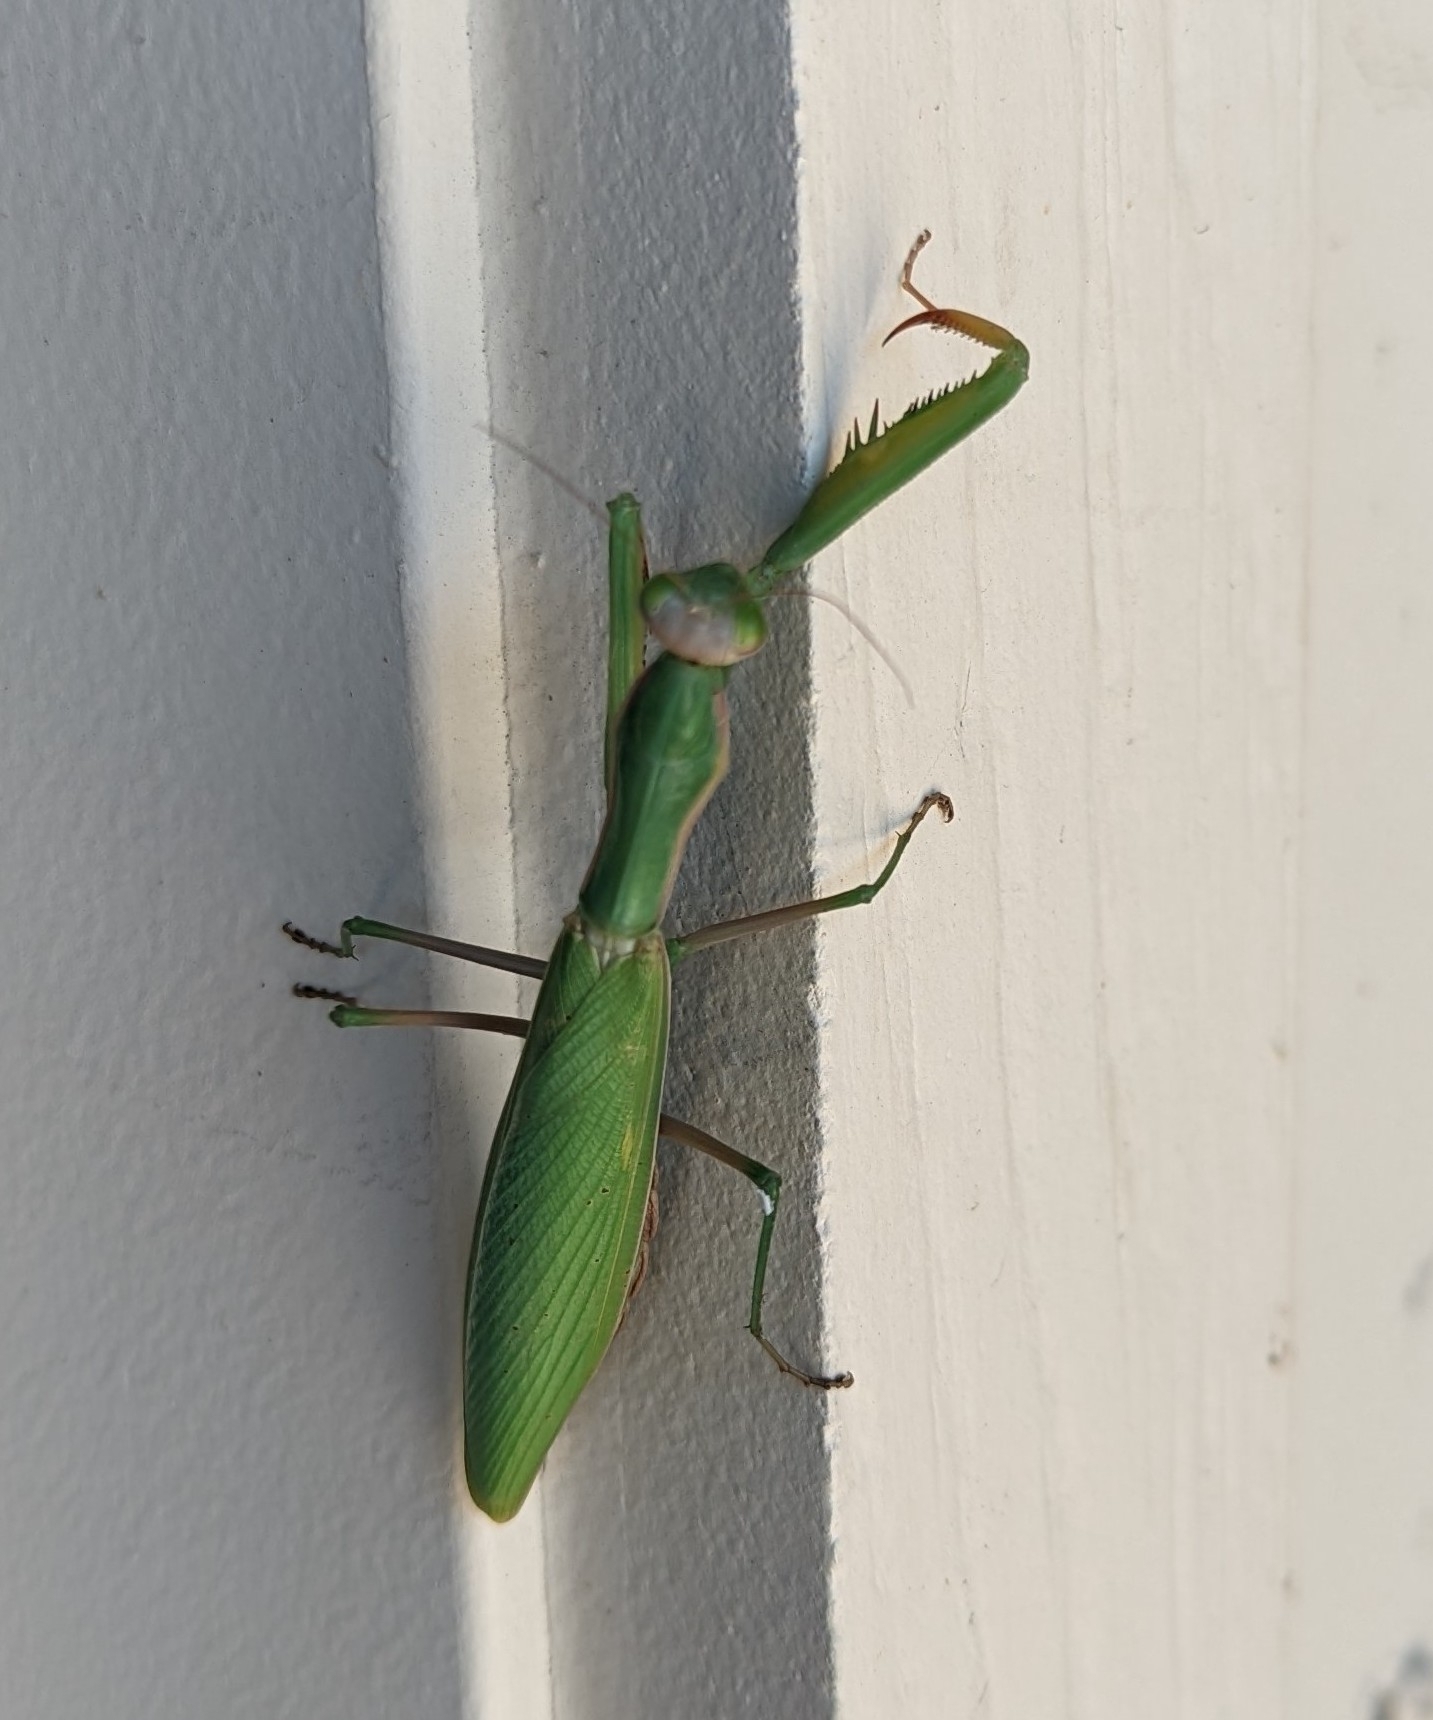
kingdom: Animalia
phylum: Arthropoda
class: Insecta
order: Mantodea
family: Mantidae
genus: Mantis
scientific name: Mantis religiosa
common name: Praying mantis
